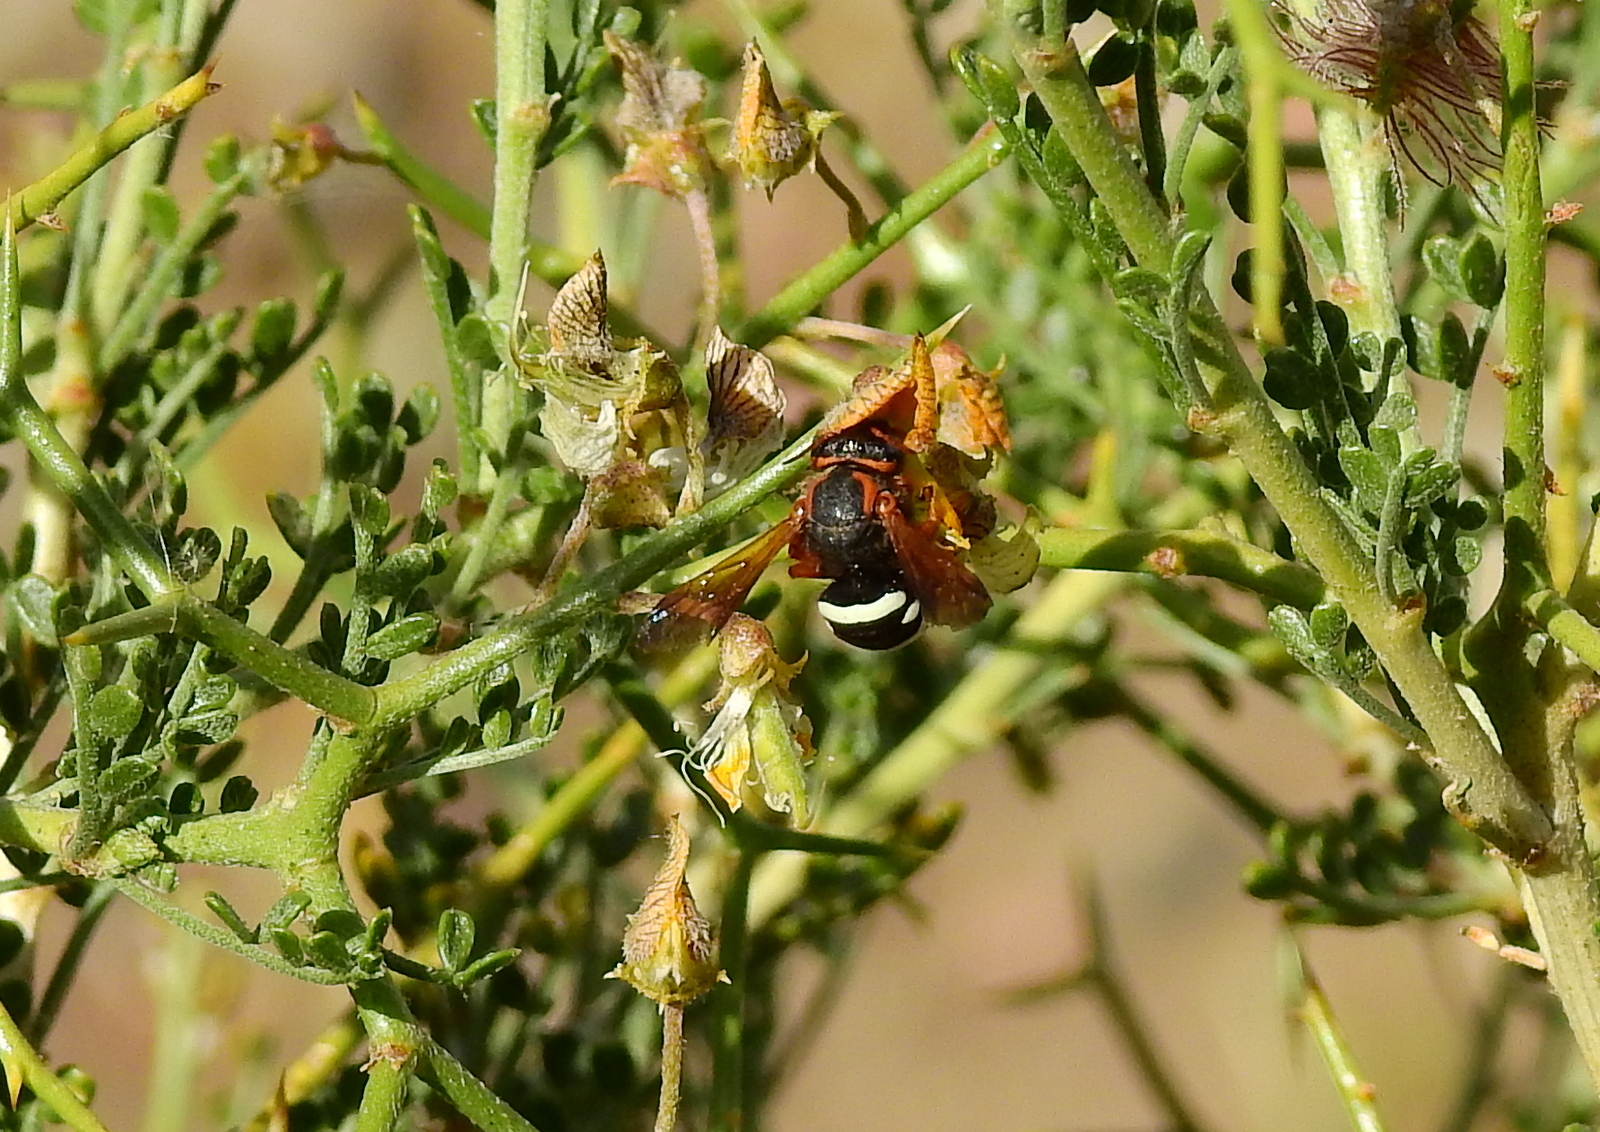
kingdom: Animalia
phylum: Arthropoda
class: Insecta
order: Hymenoptera
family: Megachilidae
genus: Notanthidium
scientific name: Notanthidium adornatum
